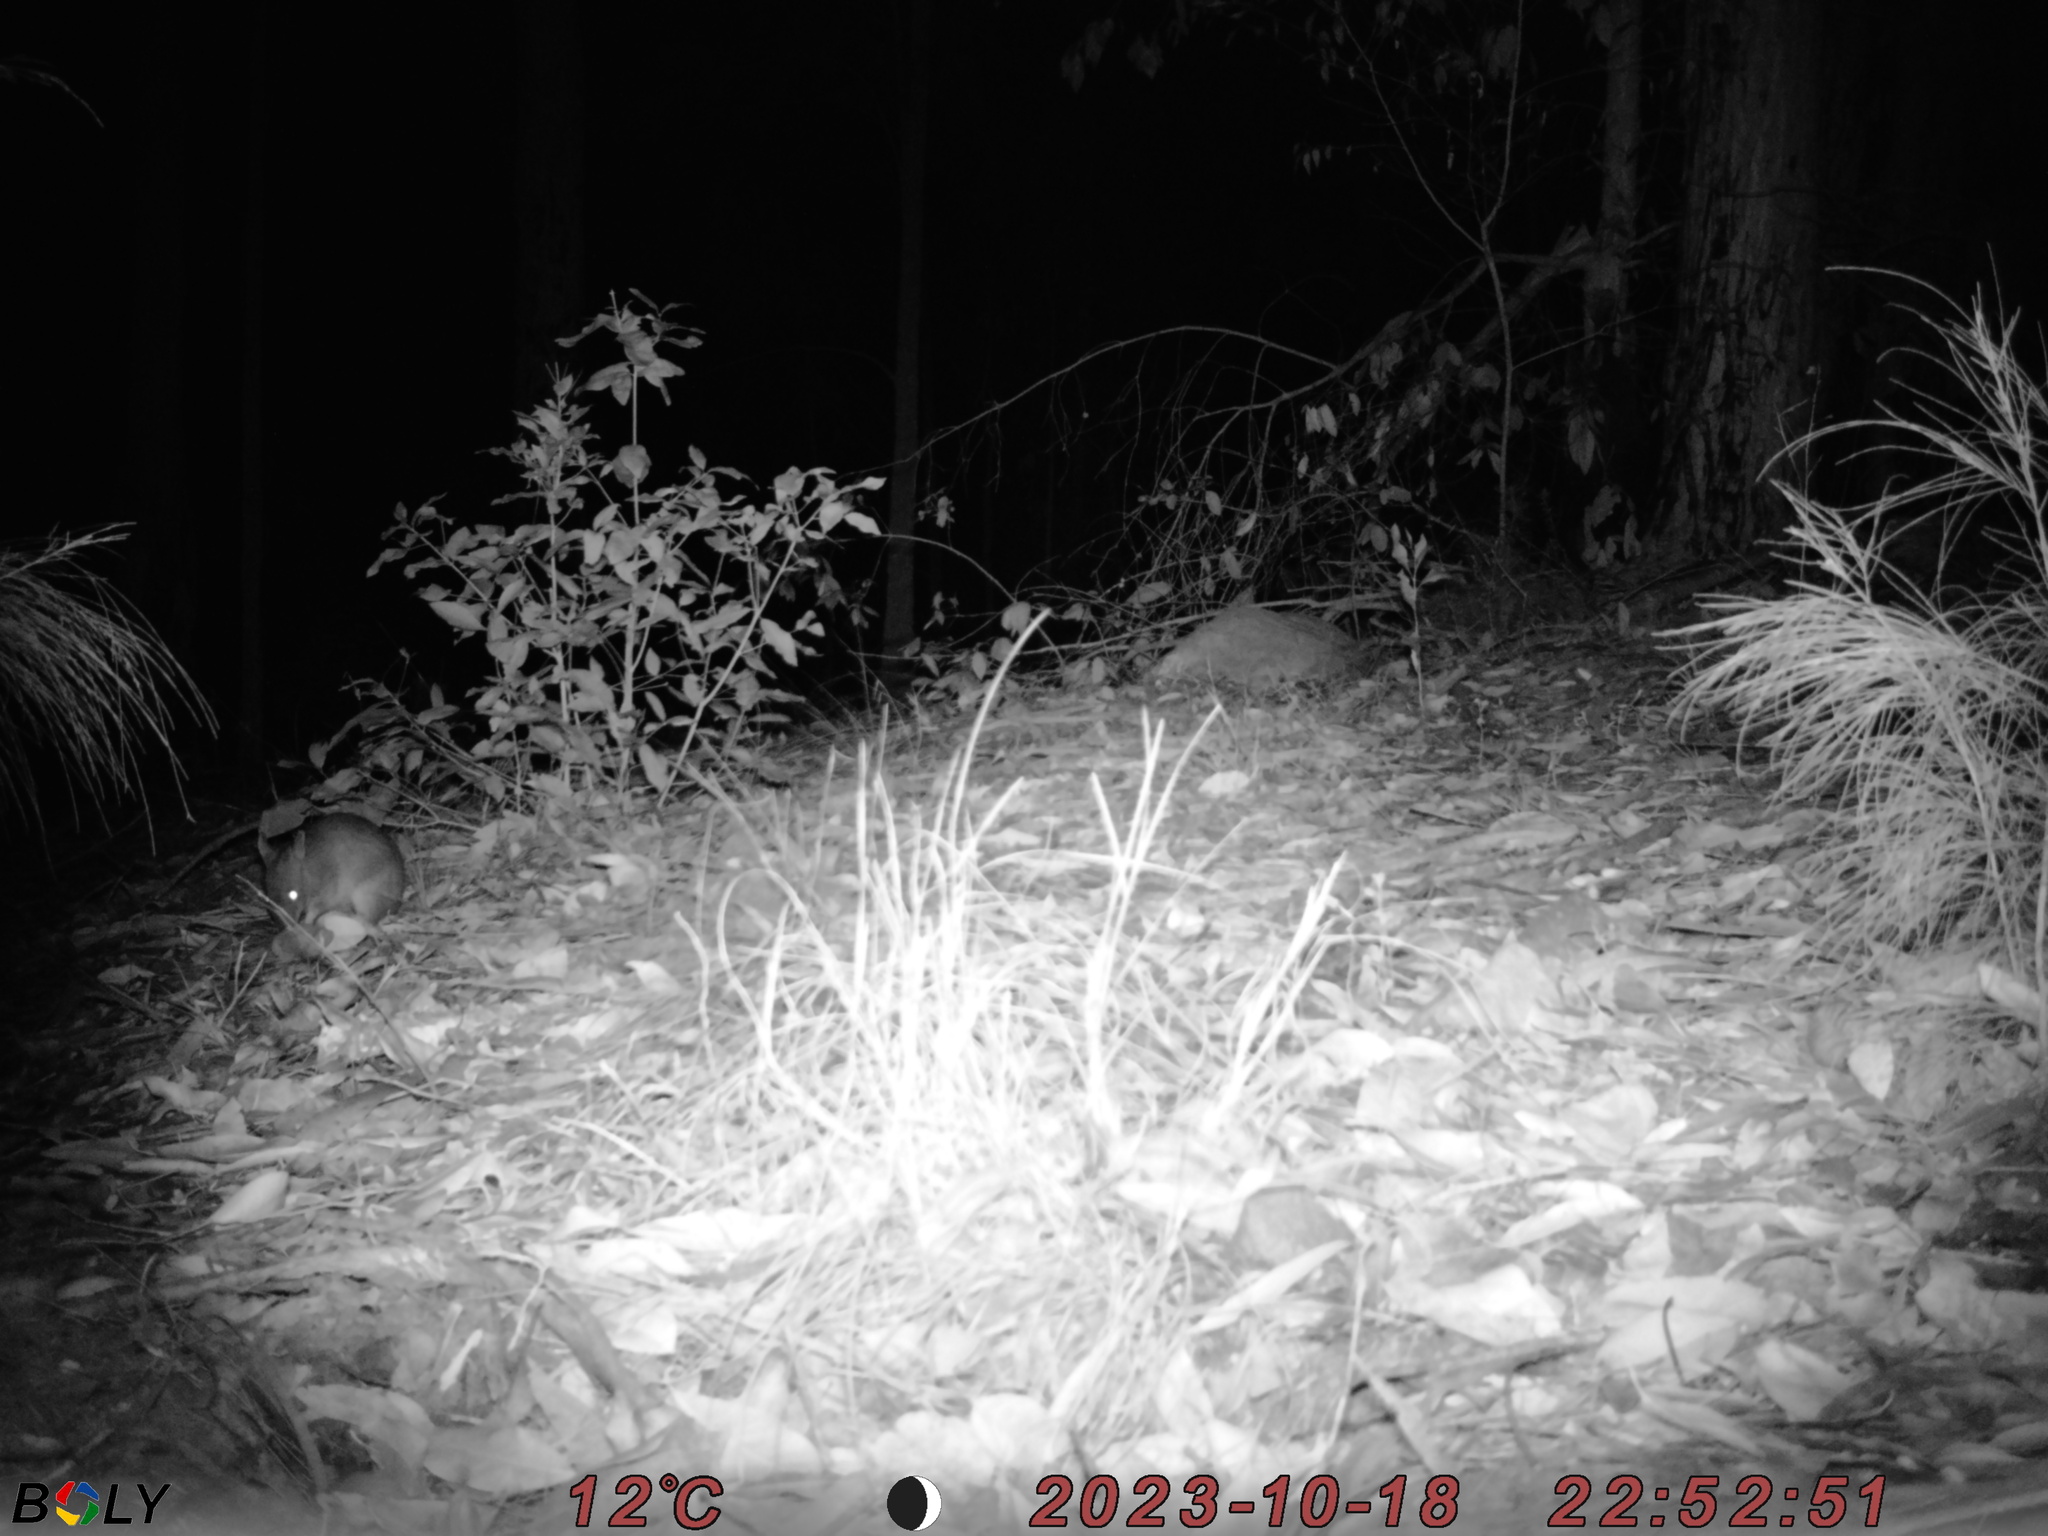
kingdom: Animalia
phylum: Chordata
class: Mammalia
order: Peramelemorphia
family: Peramelidae
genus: Perameles
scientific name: Perameles nasuta
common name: Long-nosed bandicoot
